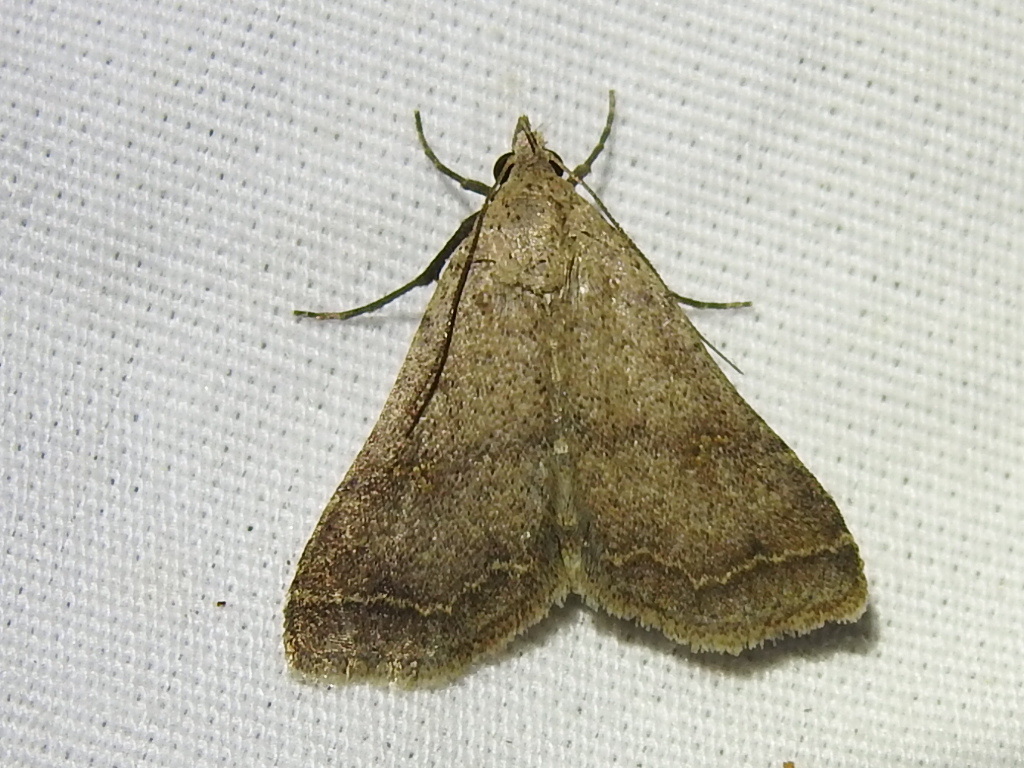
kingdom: Animalia
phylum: Arthropoda
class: Insecta
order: Lepidoptera
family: Erebidae
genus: Bleptina
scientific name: Bleptina caradrinalis
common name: Bent-winged owlet
